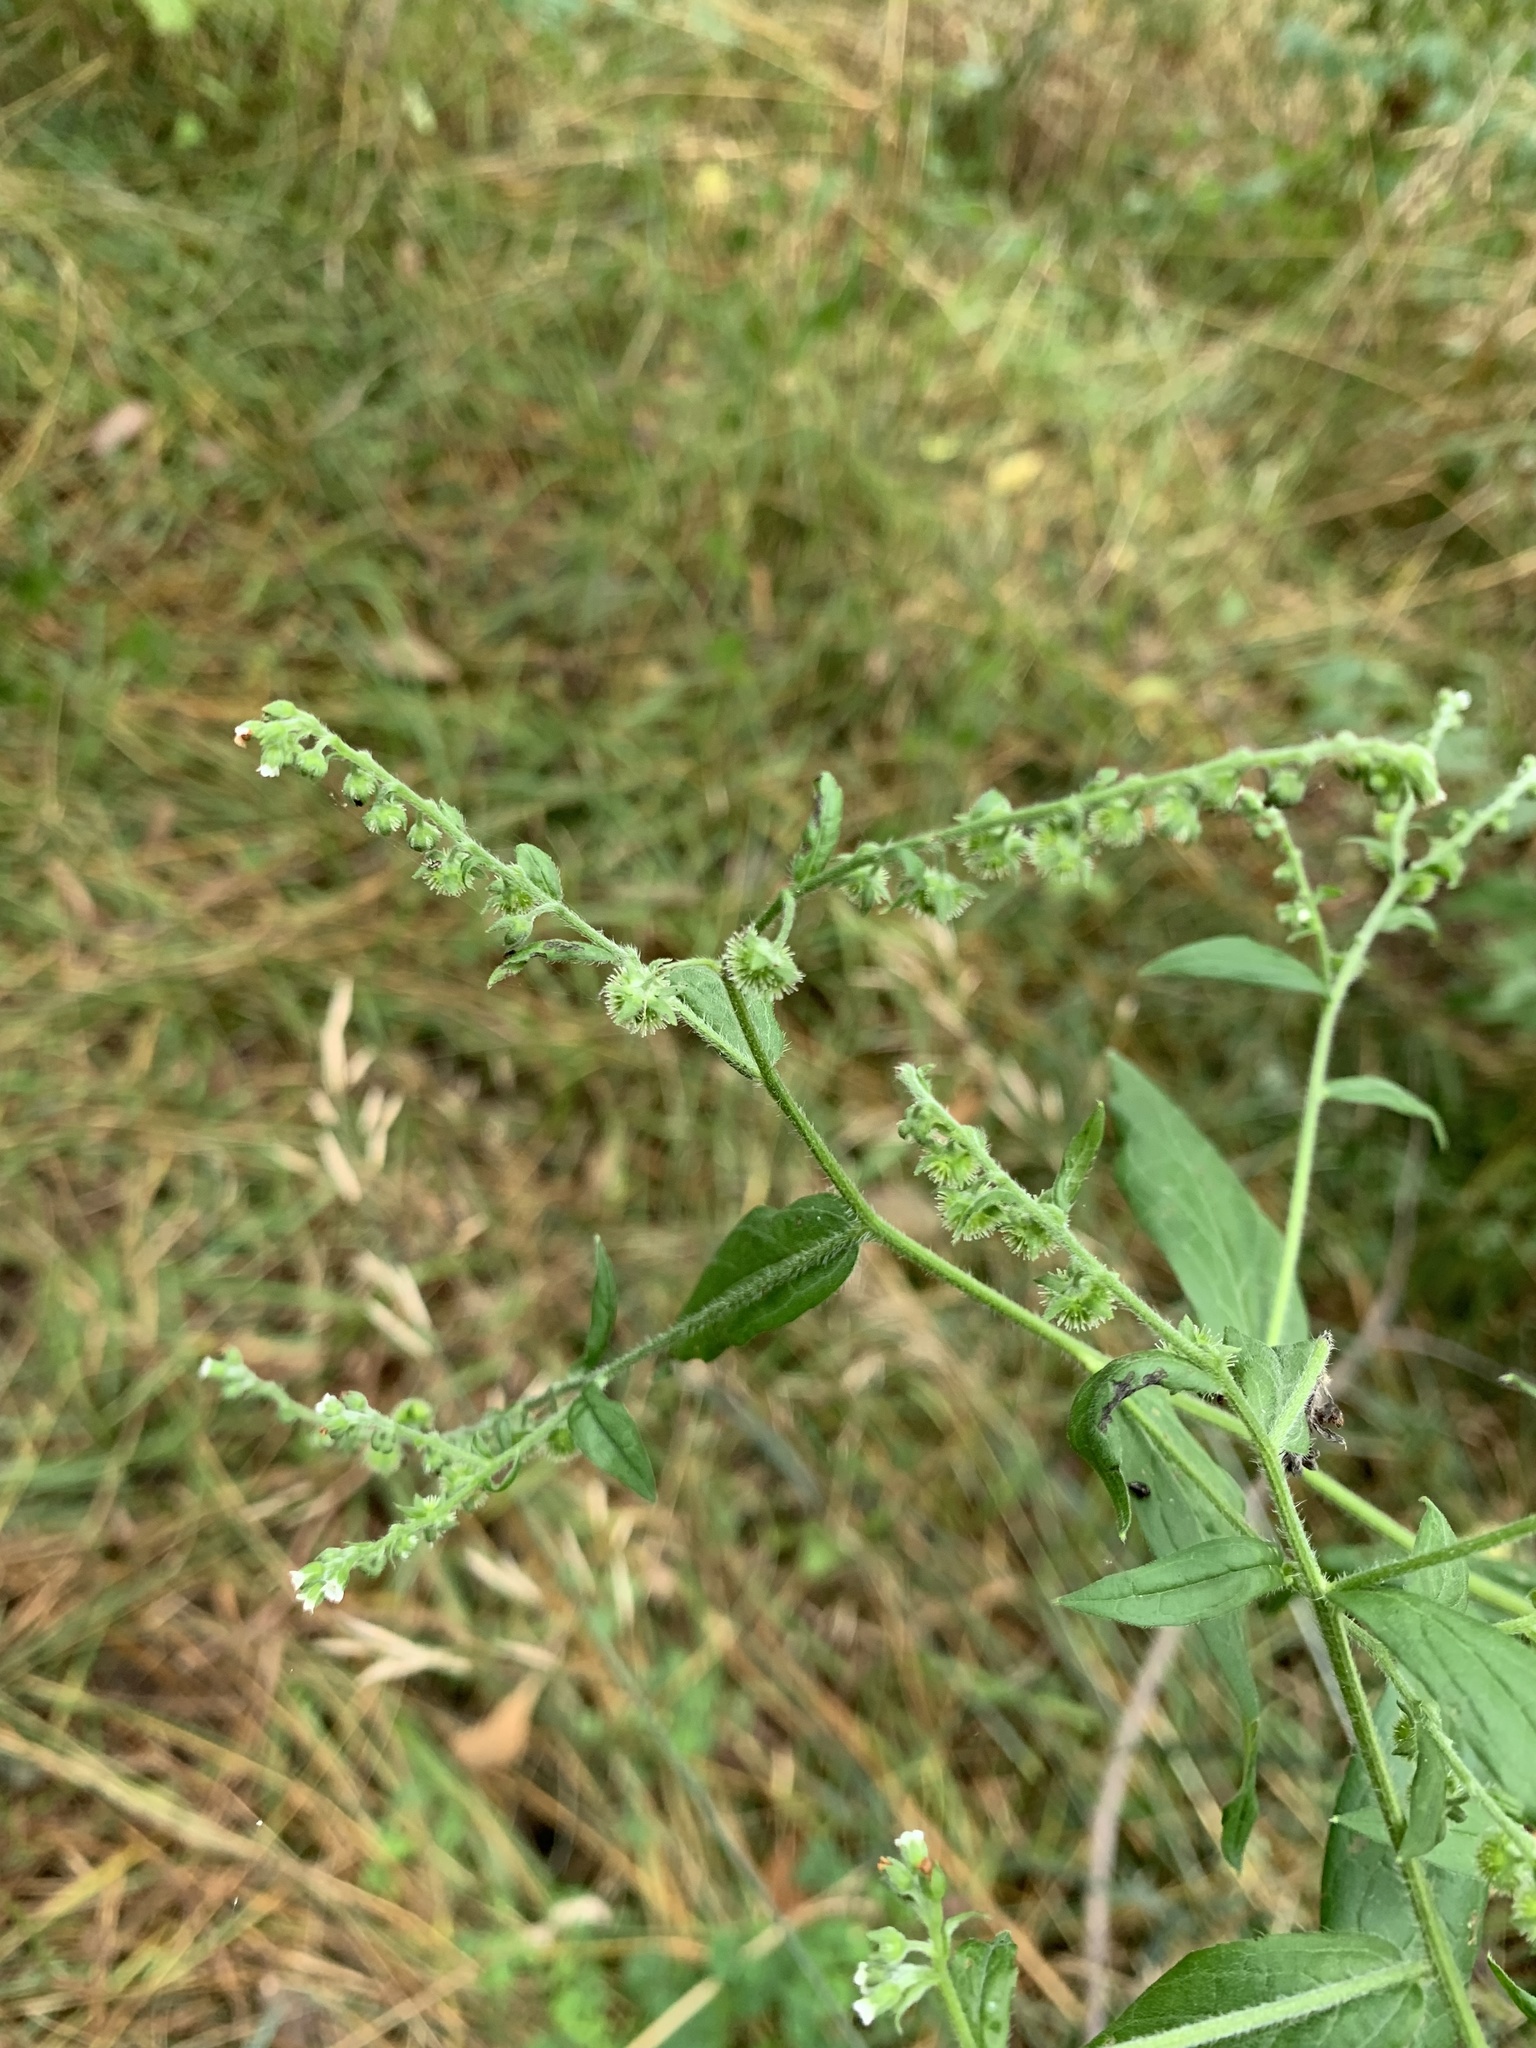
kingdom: Plantae
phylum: Tracheophyta
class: Magnoliopsida
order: Boraginales
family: Boraginaceae
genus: Hackelia
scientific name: Hackelia virginiana
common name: Beggar's-lice
